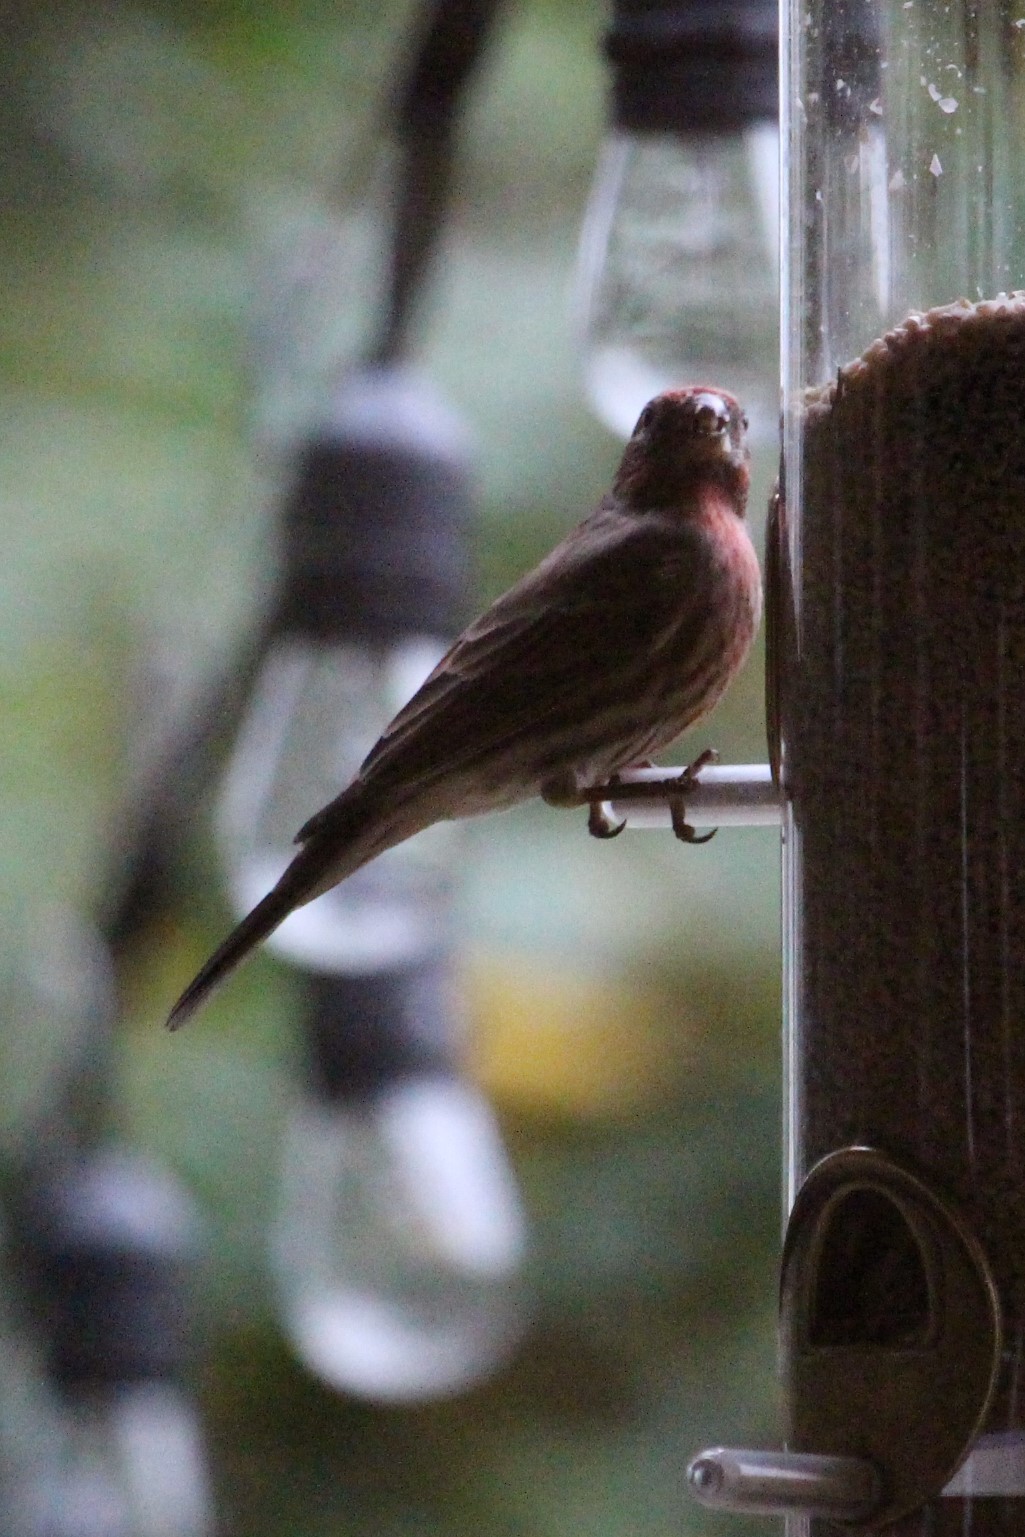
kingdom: Animalia
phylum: Chordata
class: Aves
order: Passeriformes
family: Fringillidae
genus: Haemorhous
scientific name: Haemorhous mexicanus
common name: House finch
